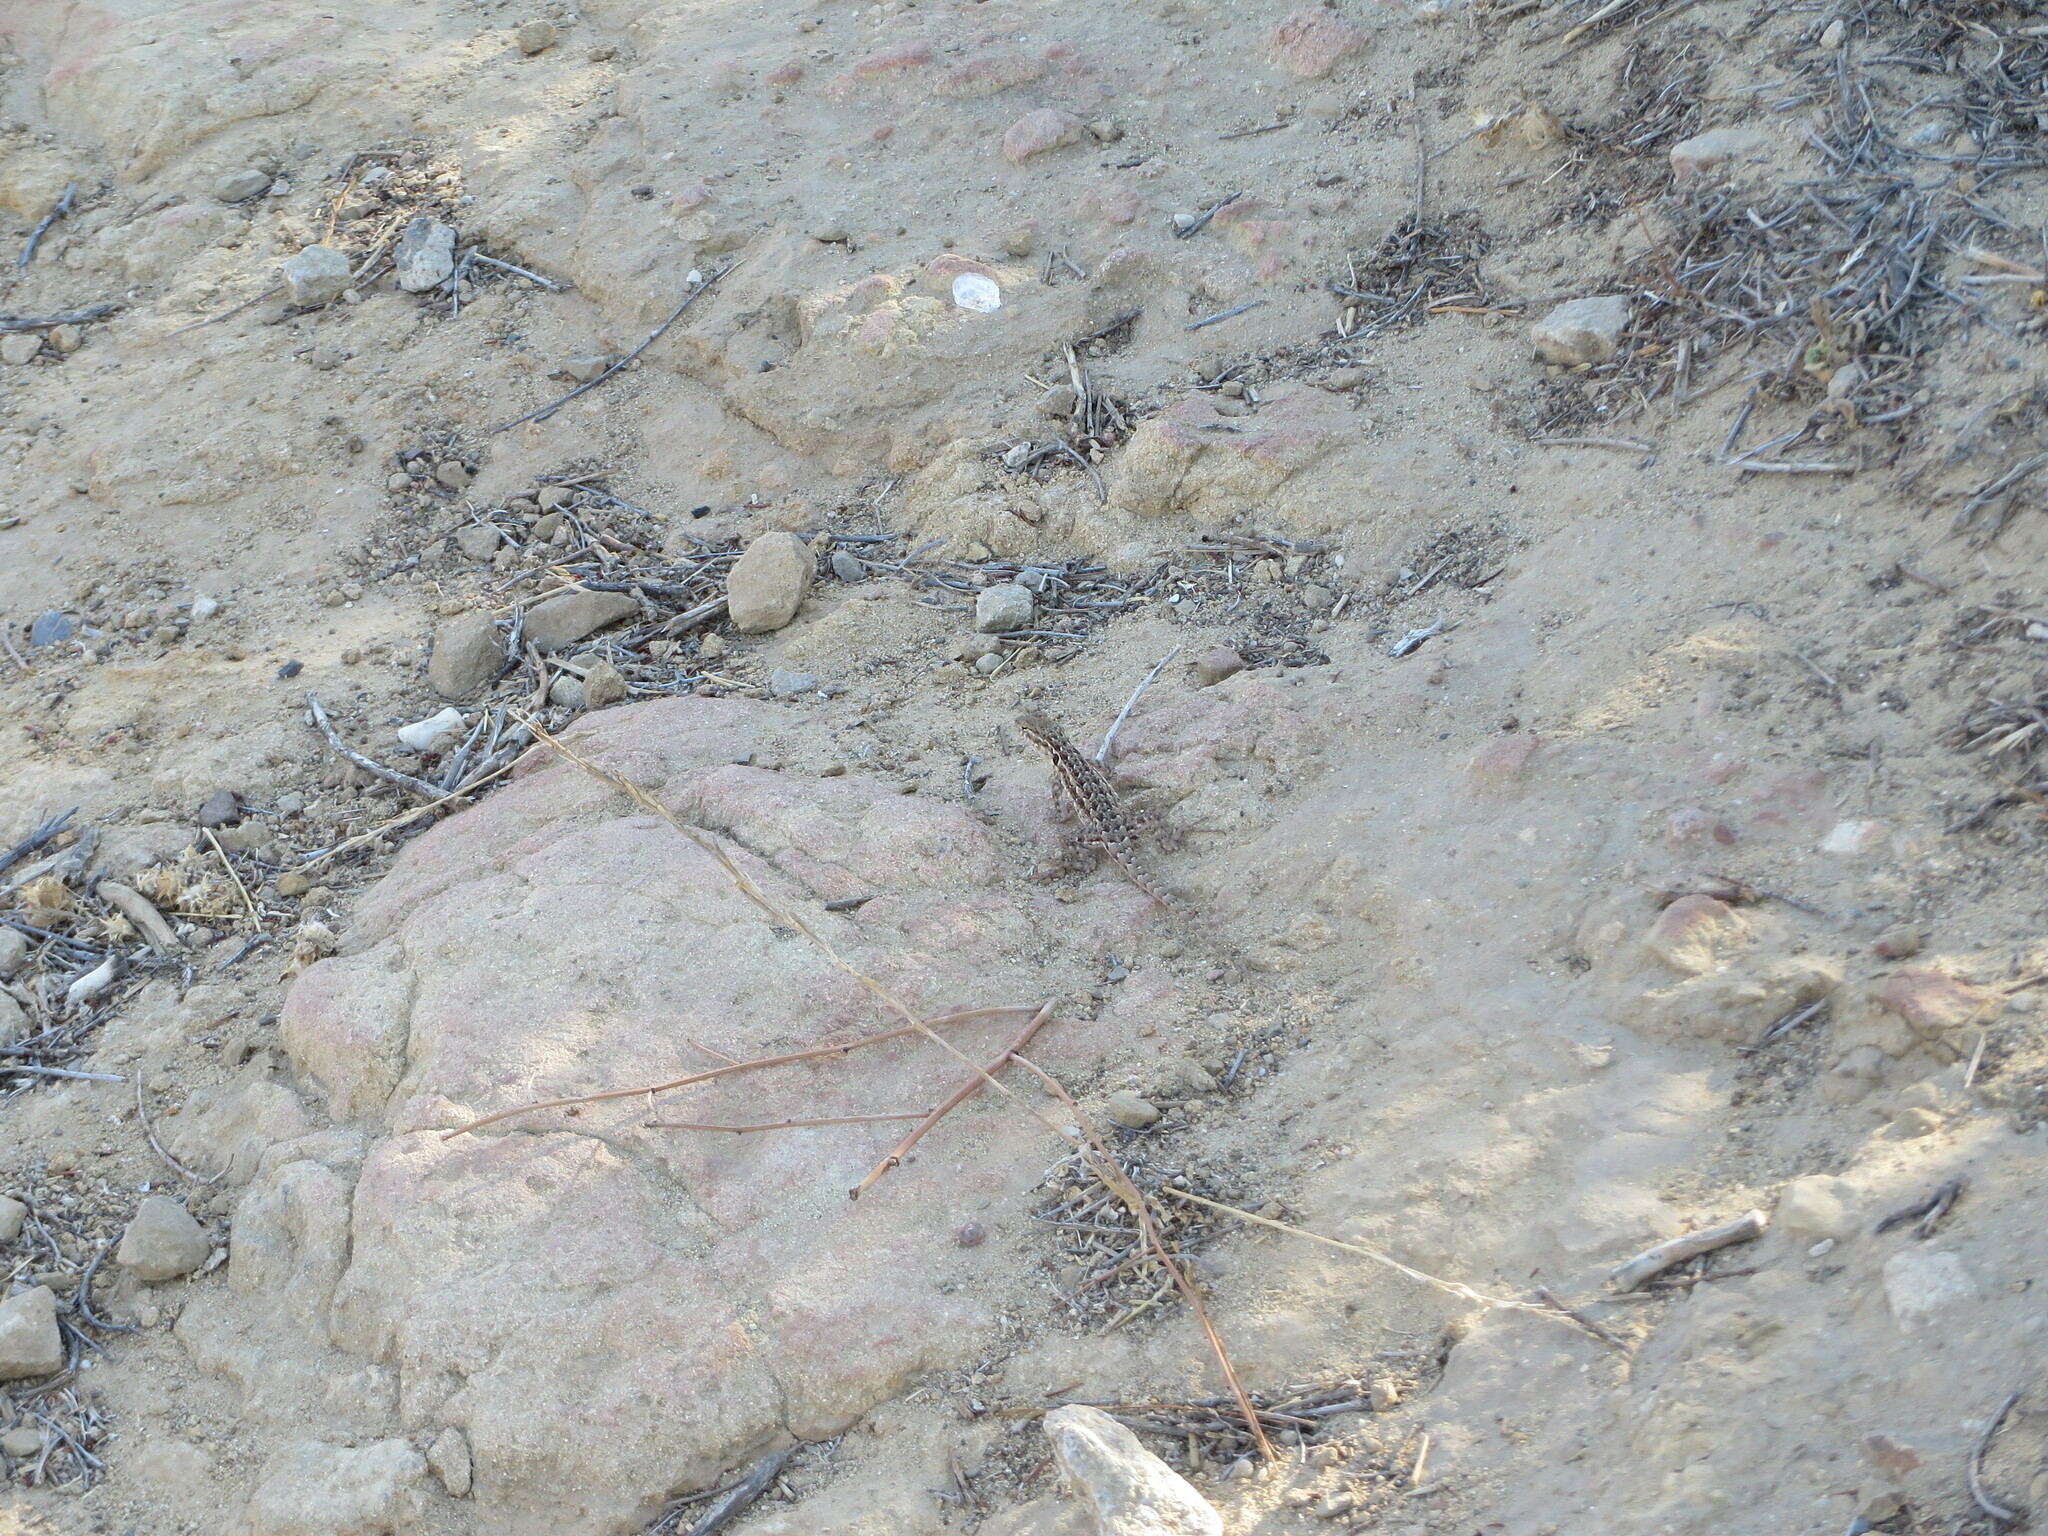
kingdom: Animalia
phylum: Chordata
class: Squamata
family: Phrynosomatidae
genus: Uta
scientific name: Uta stansburiana
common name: Side-blotched lizard
